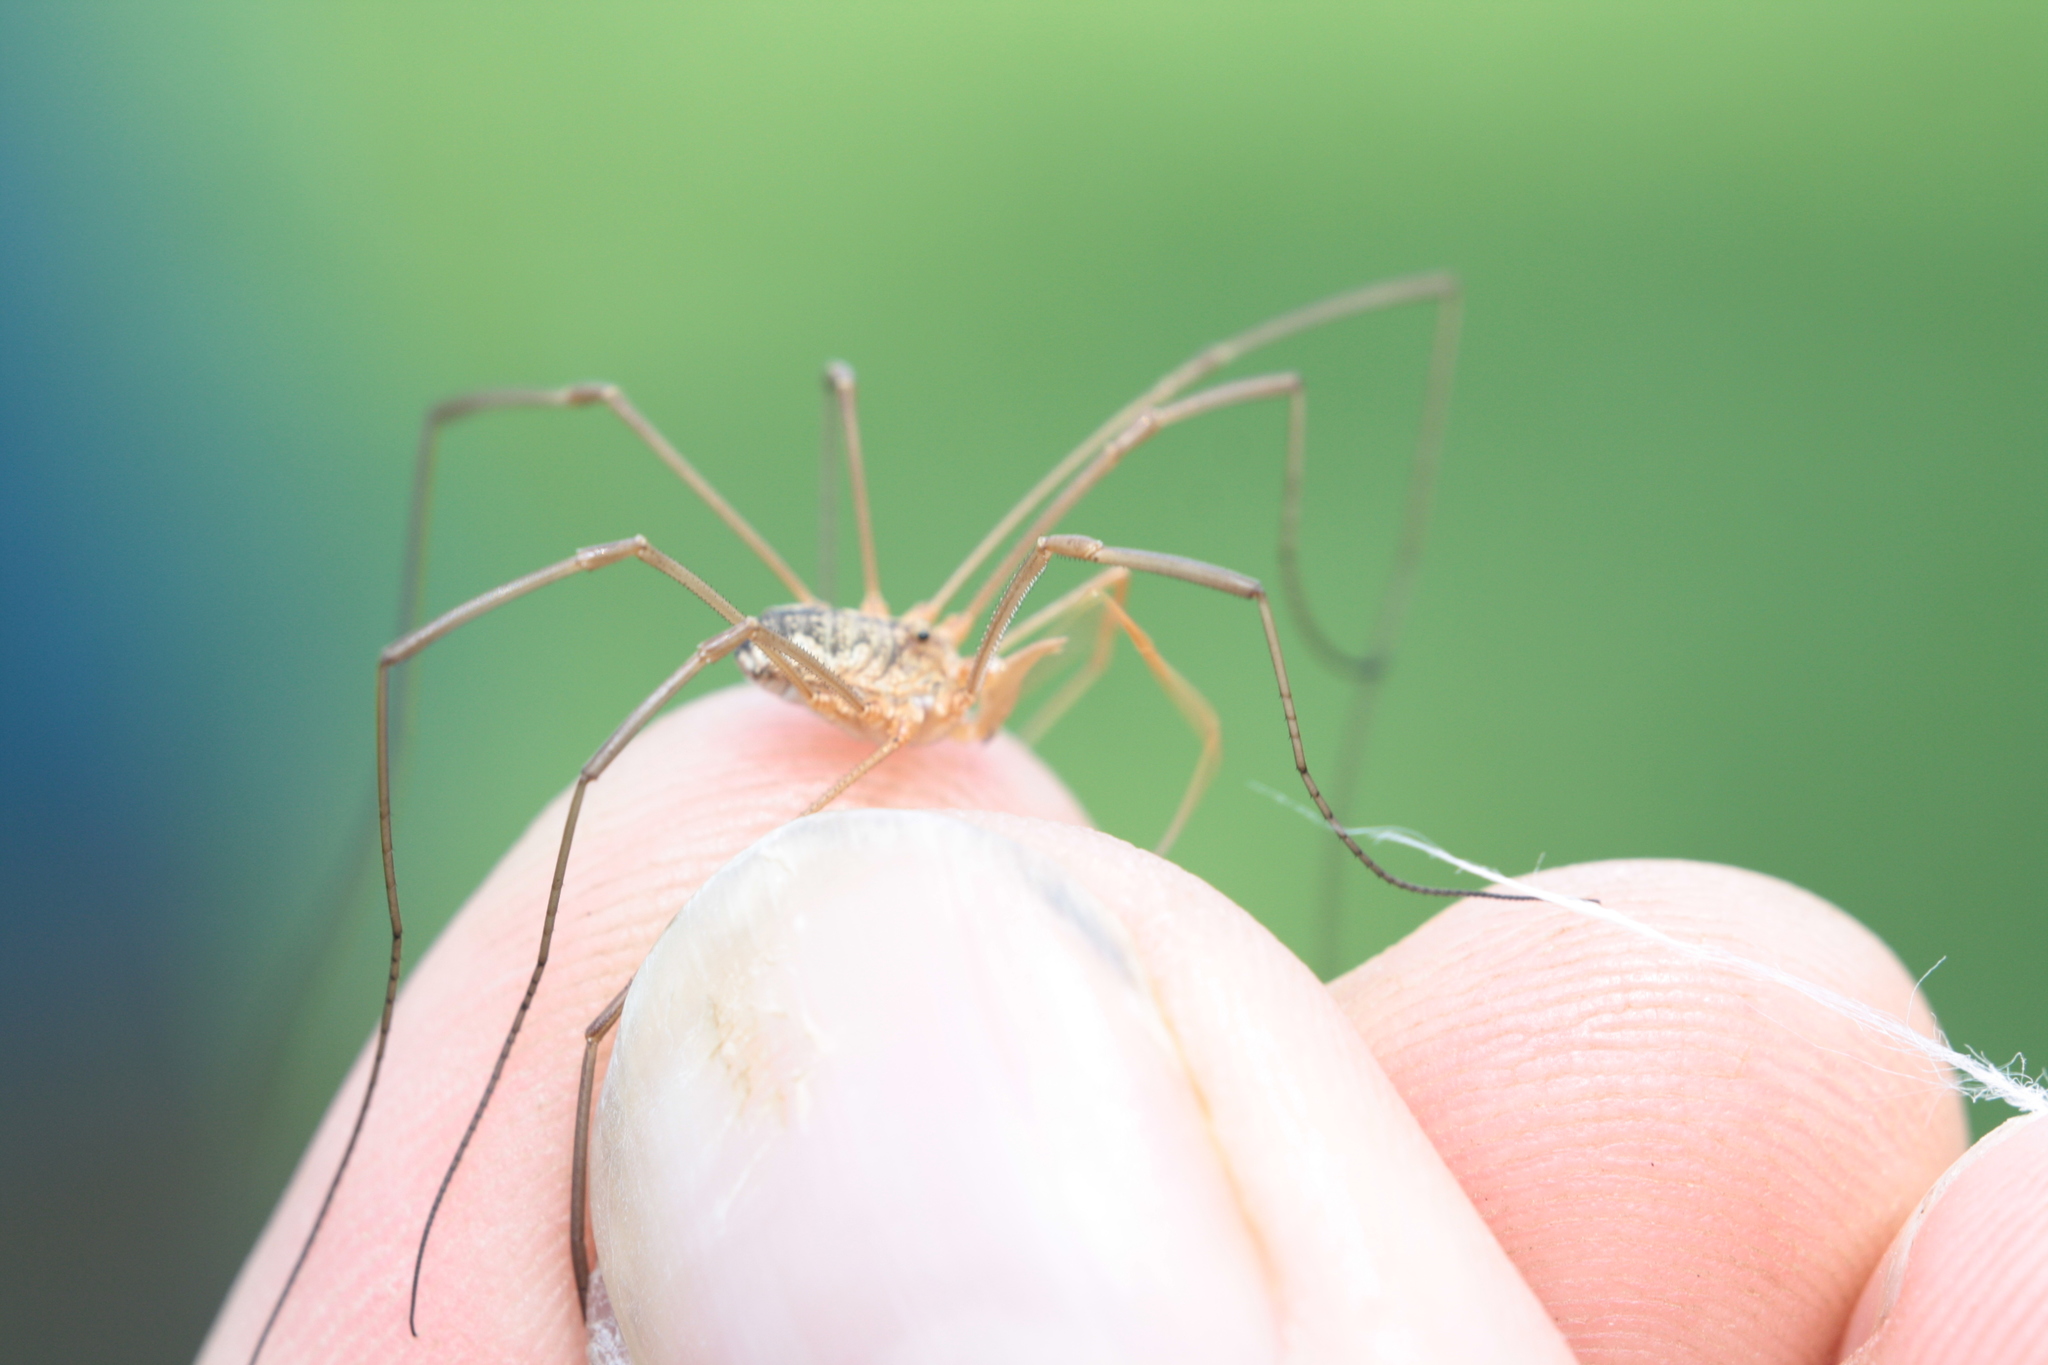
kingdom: Animalia
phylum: Arthropoda
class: Arachnida
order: Opiliones
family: Phalangiidae
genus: Phalangium
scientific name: Phalangium opilio
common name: Daddy longleg
